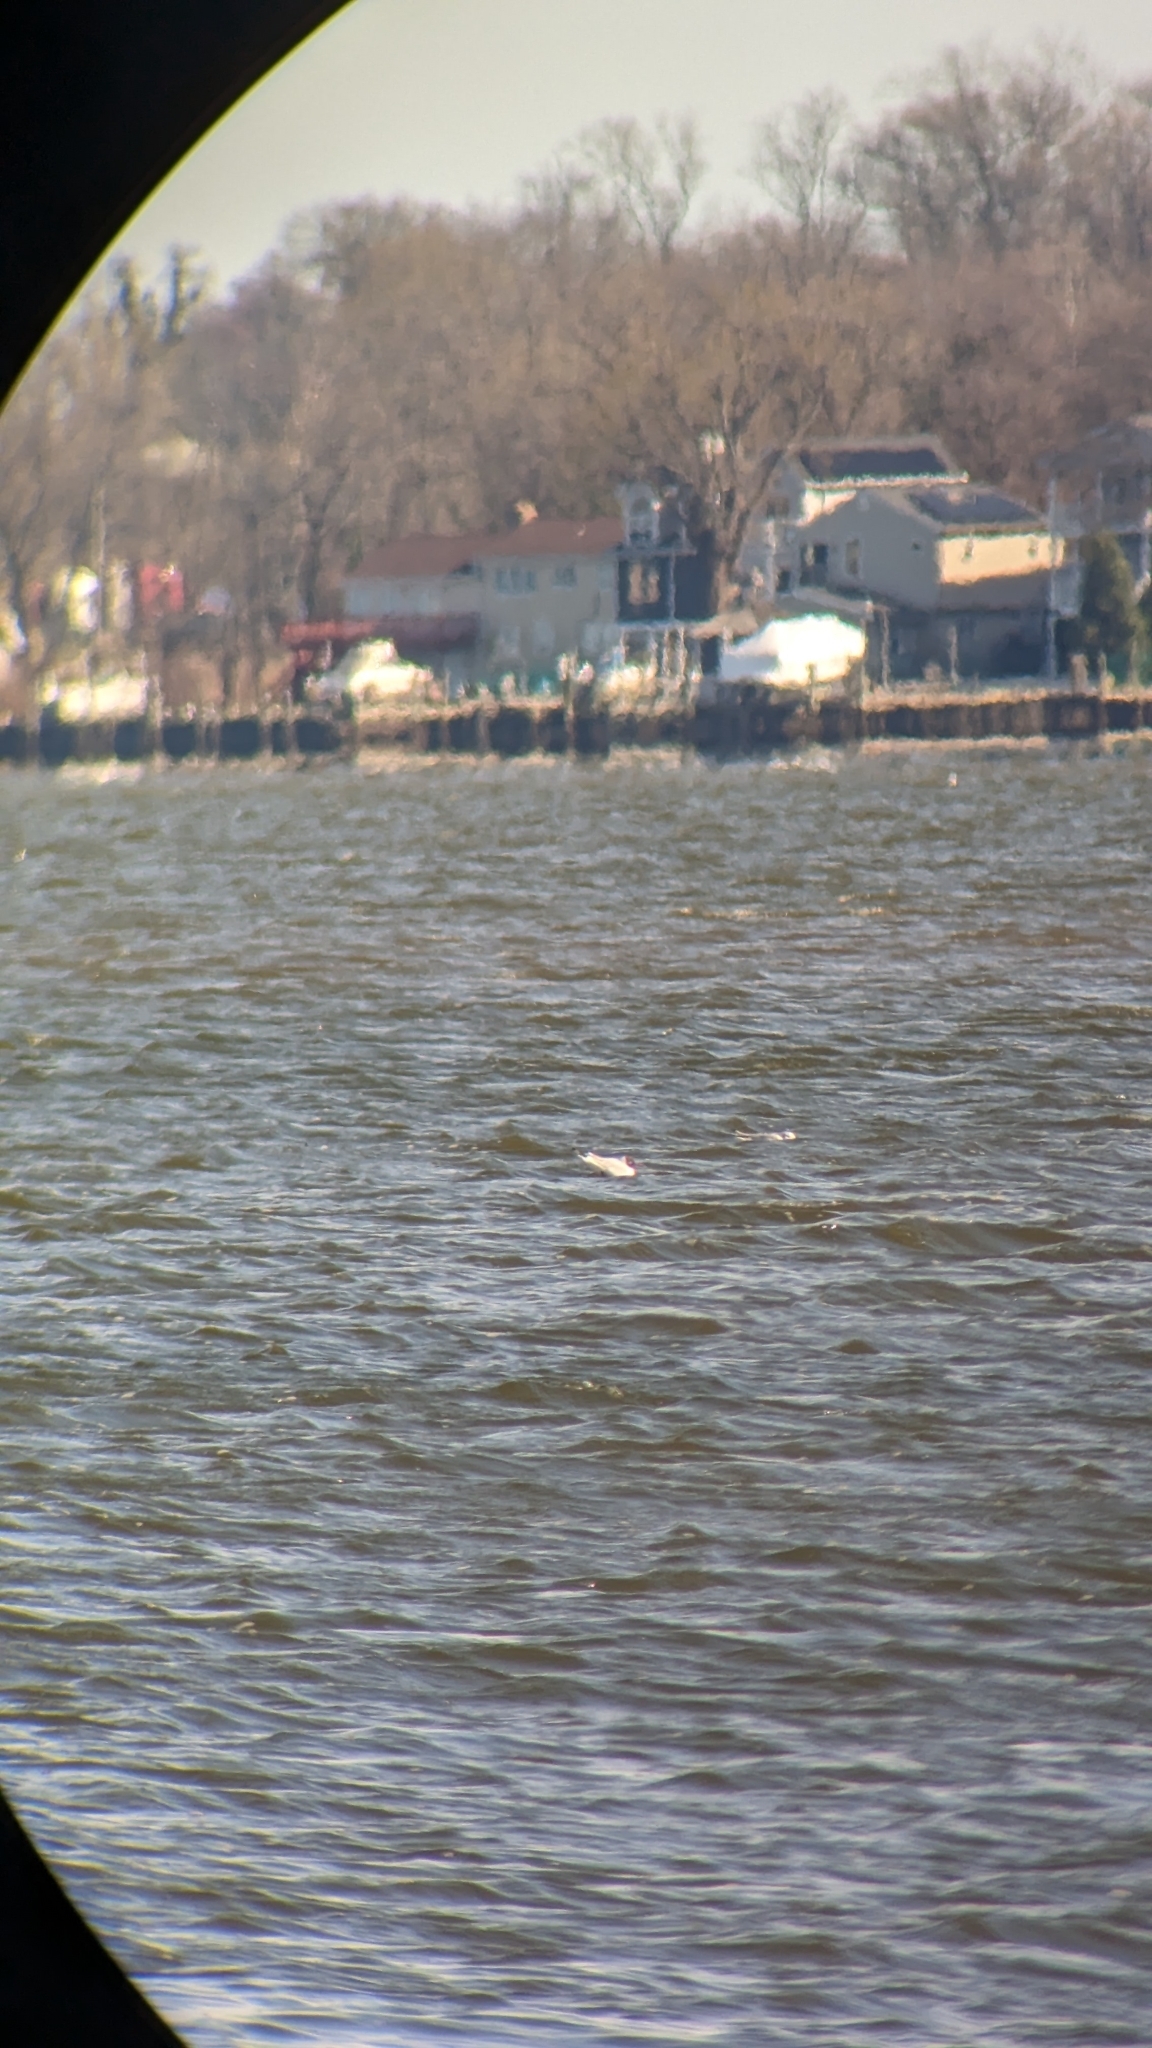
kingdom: Animalia
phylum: Chordata
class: Aves
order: Charadriiformes
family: Laridae
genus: Chroicocephalus
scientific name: Chroicocephalus ridibundus
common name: Black-headed gull
